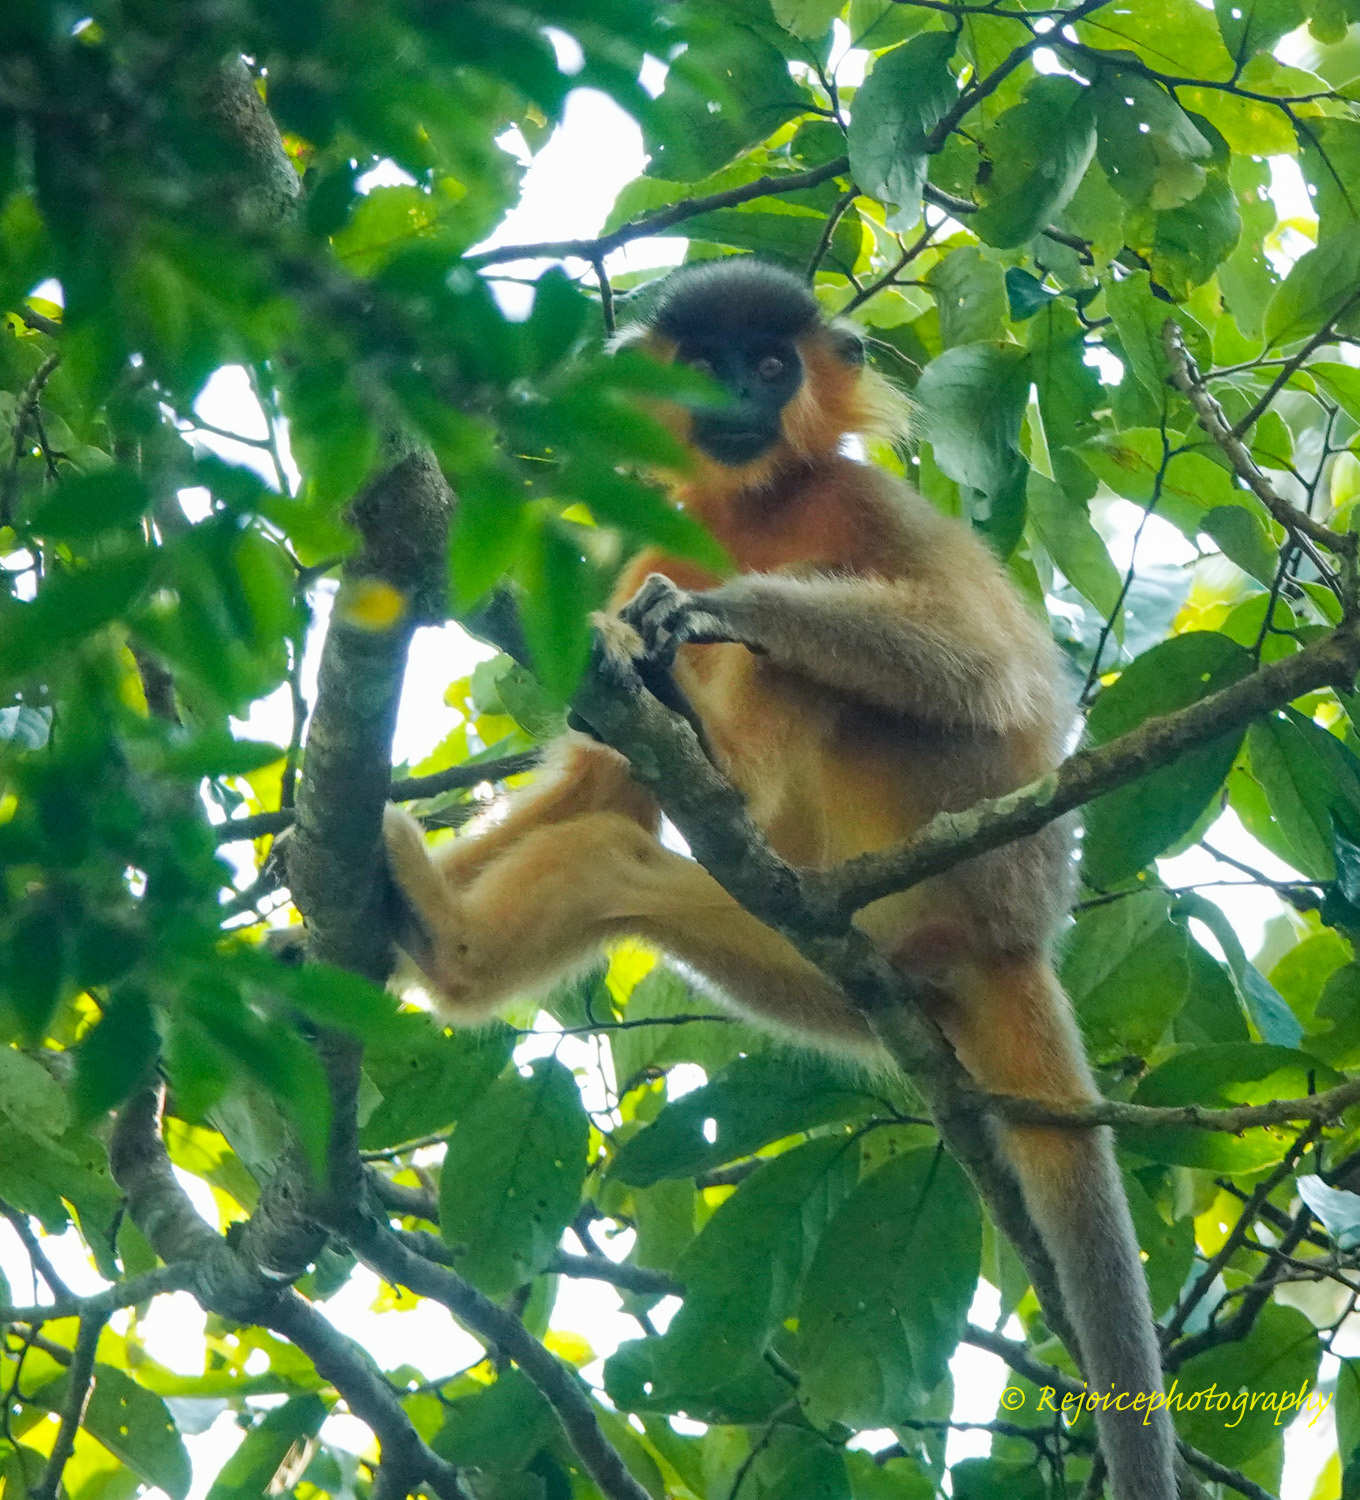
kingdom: Animalia
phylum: Chordata
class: Mammalia
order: Primates
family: Cercopithecidae
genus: Trachypithecus
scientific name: Trachypithecus pileatus
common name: Capped langur
